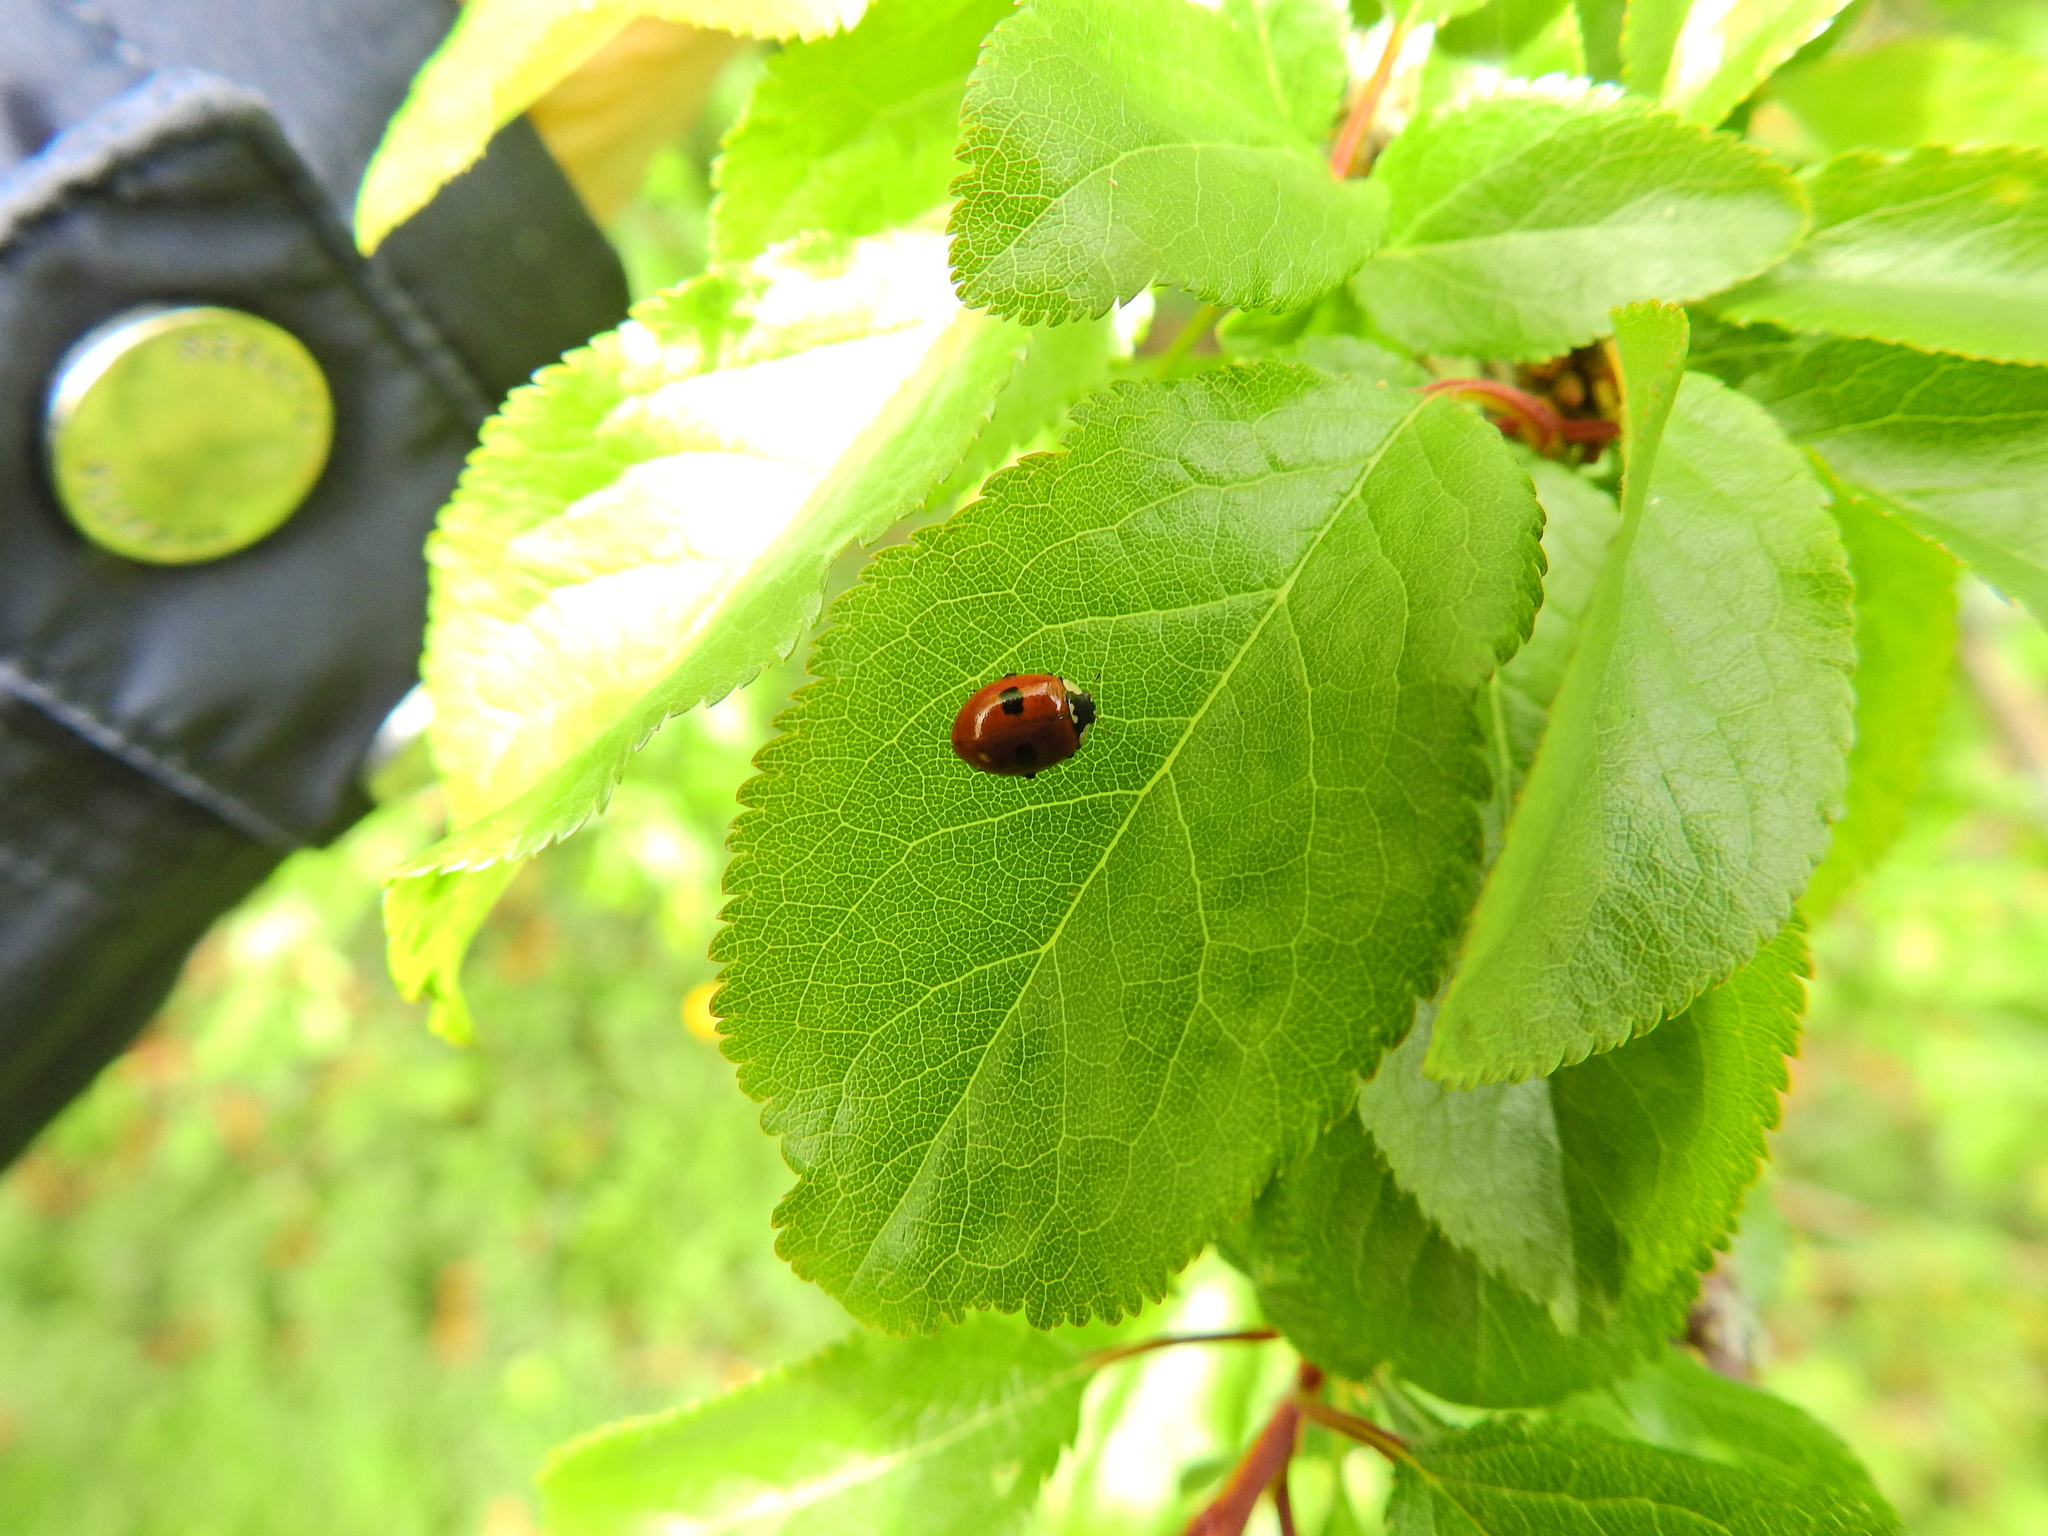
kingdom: Animalia
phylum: Arthropoda
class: Insecta
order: Coleoptera
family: Coccinellidae
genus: Adalia
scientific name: Adalia bipunctata
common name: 2-spot ladybird
